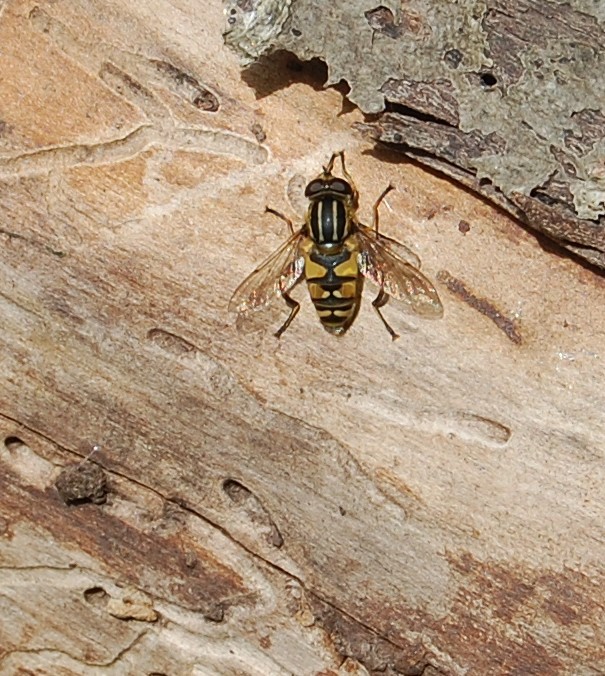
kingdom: Animalia
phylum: Arthropoda
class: Insecta
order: Diptera
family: Syrphidae
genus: Helophilus
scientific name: Helophilus pendulus
